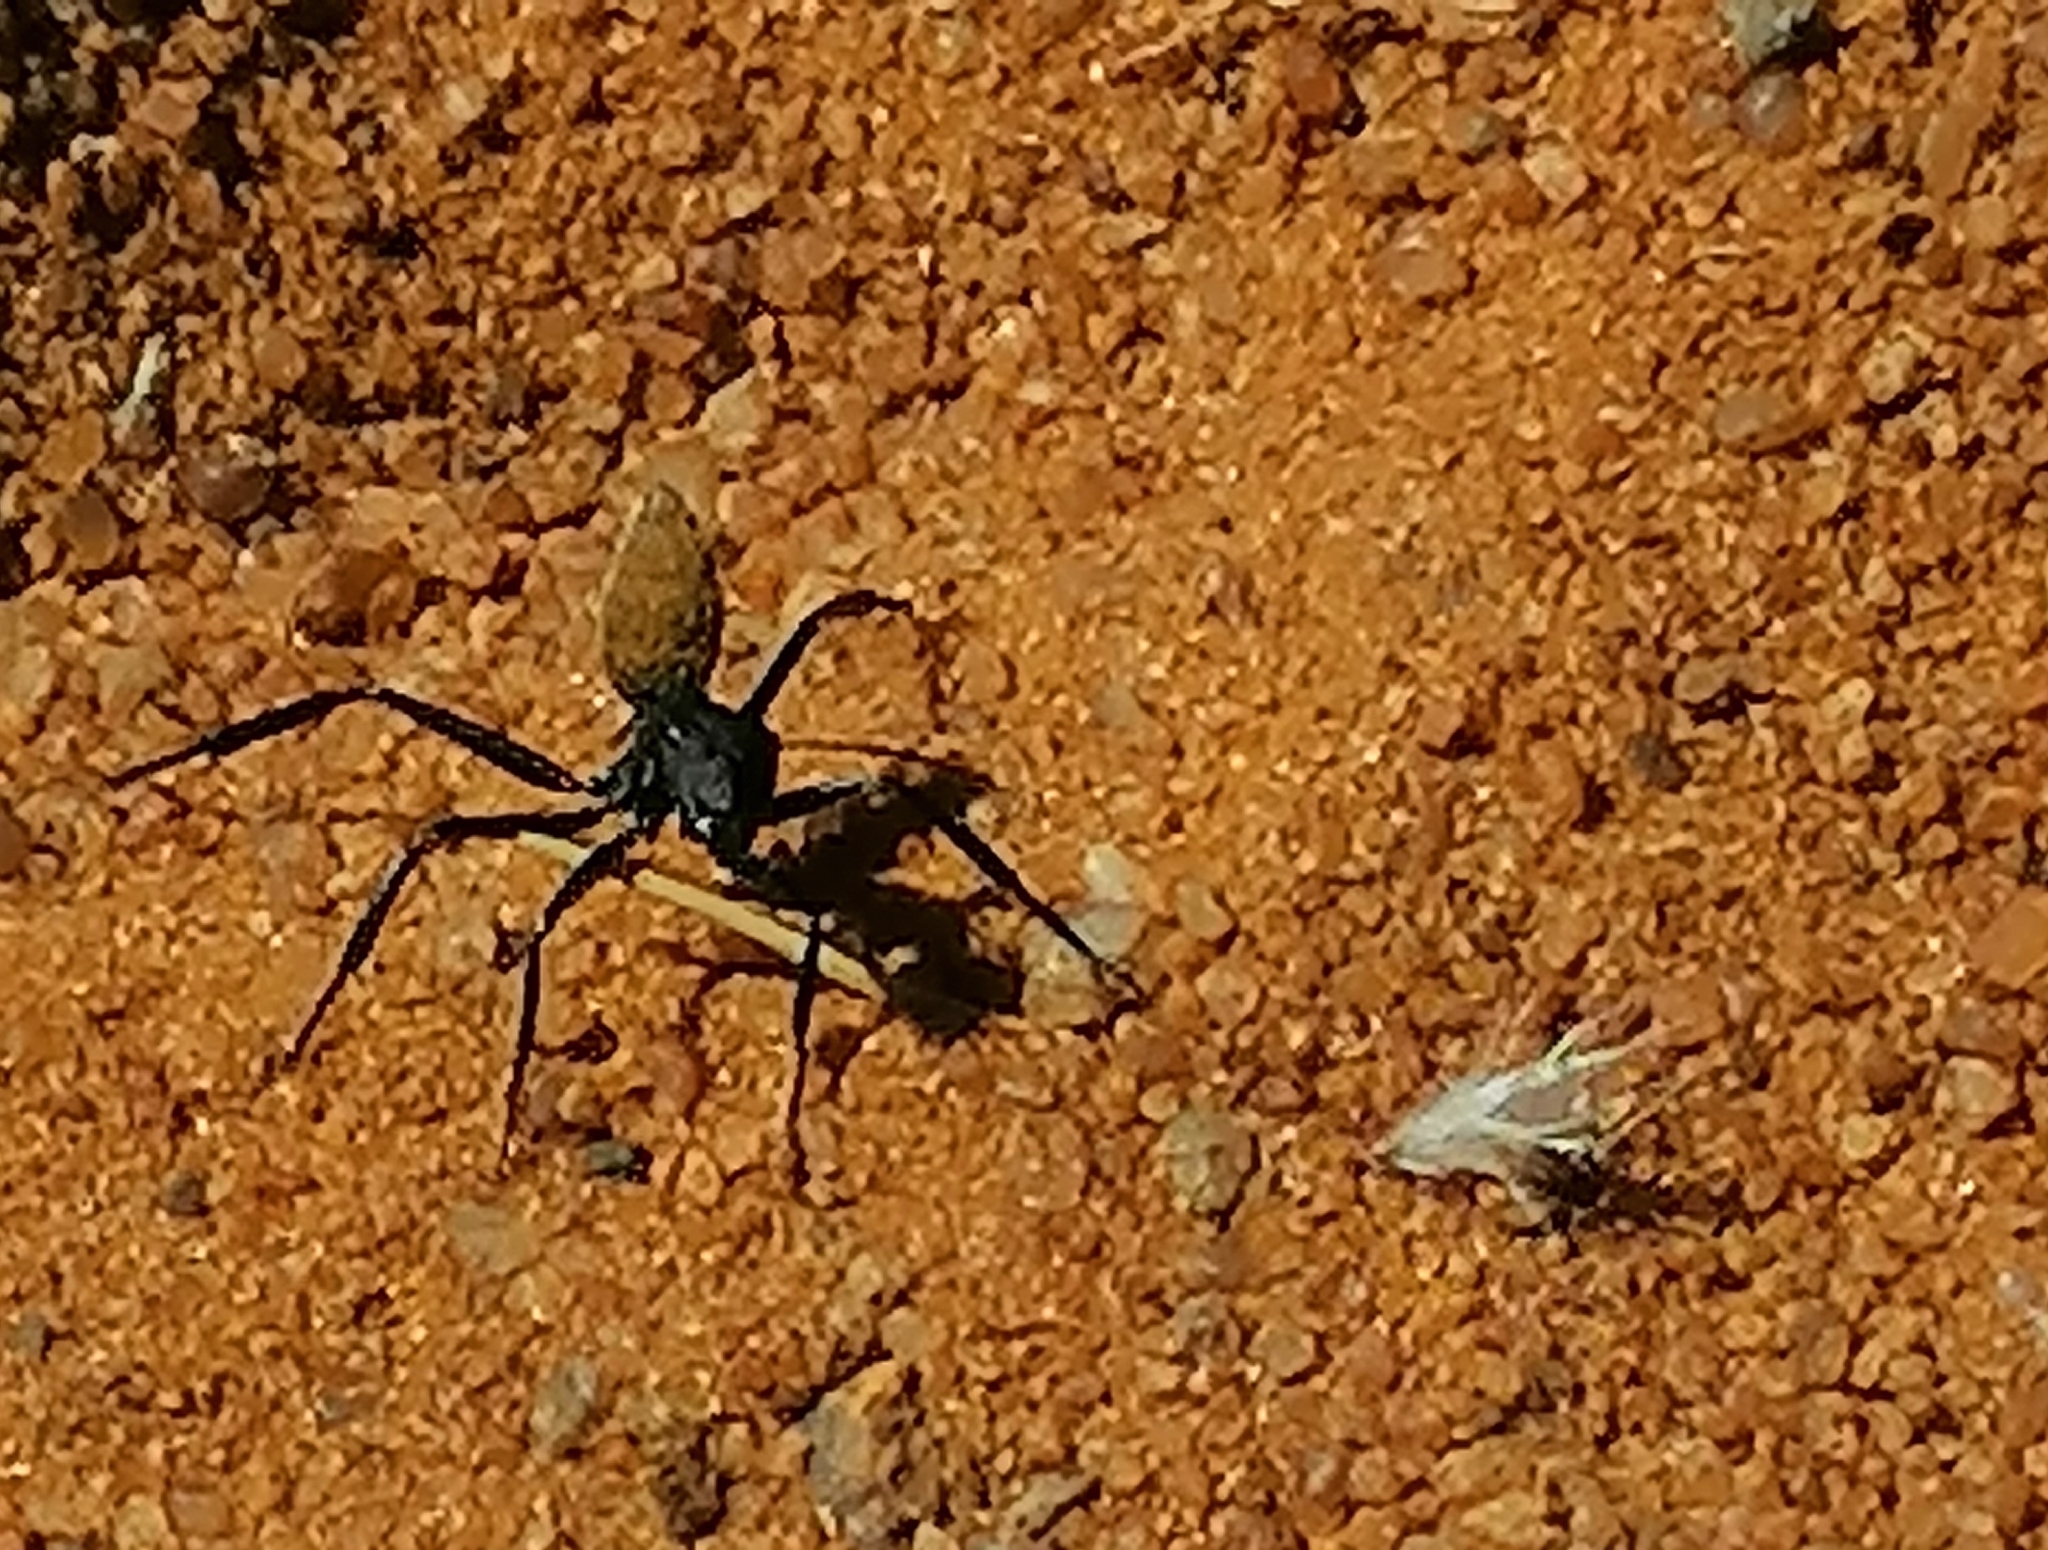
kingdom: Animalia
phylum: Arthropoda
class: Insecta
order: Hymenoptera
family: Formicidae
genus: Camponotus
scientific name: Camponotus fulvopilosus
